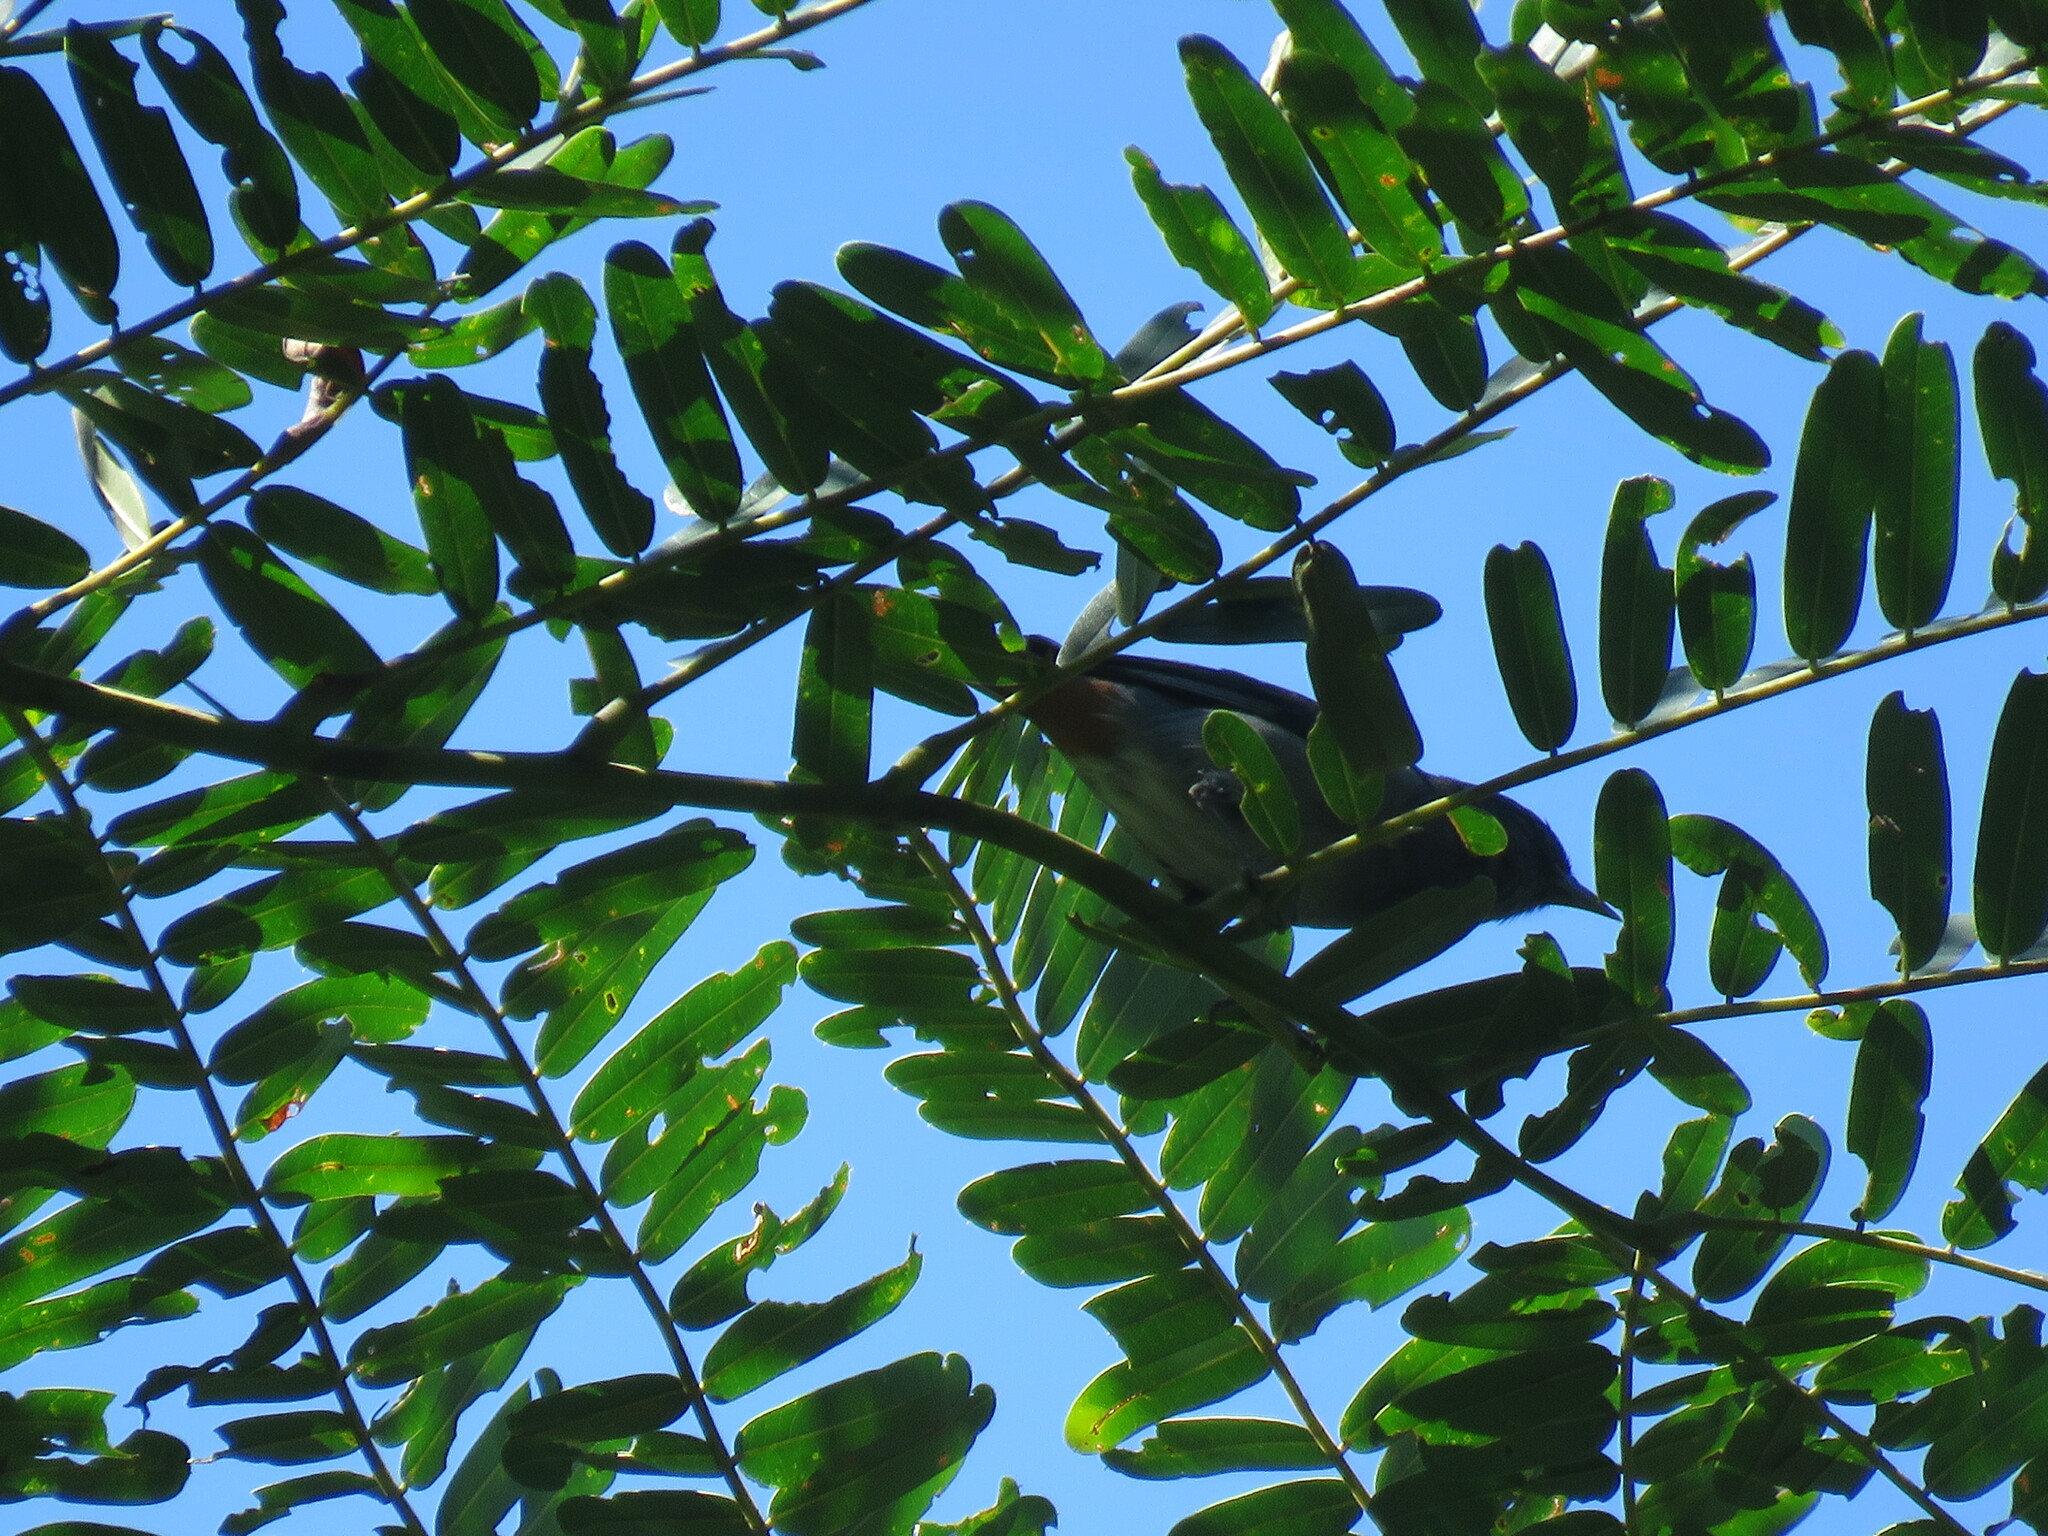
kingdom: Animalia
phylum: Chordata
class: Aves
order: Passeriformes
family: Thraupidae
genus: Conirostrum
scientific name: Conirostrum speciosum
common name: Chestnut-vented conebill
